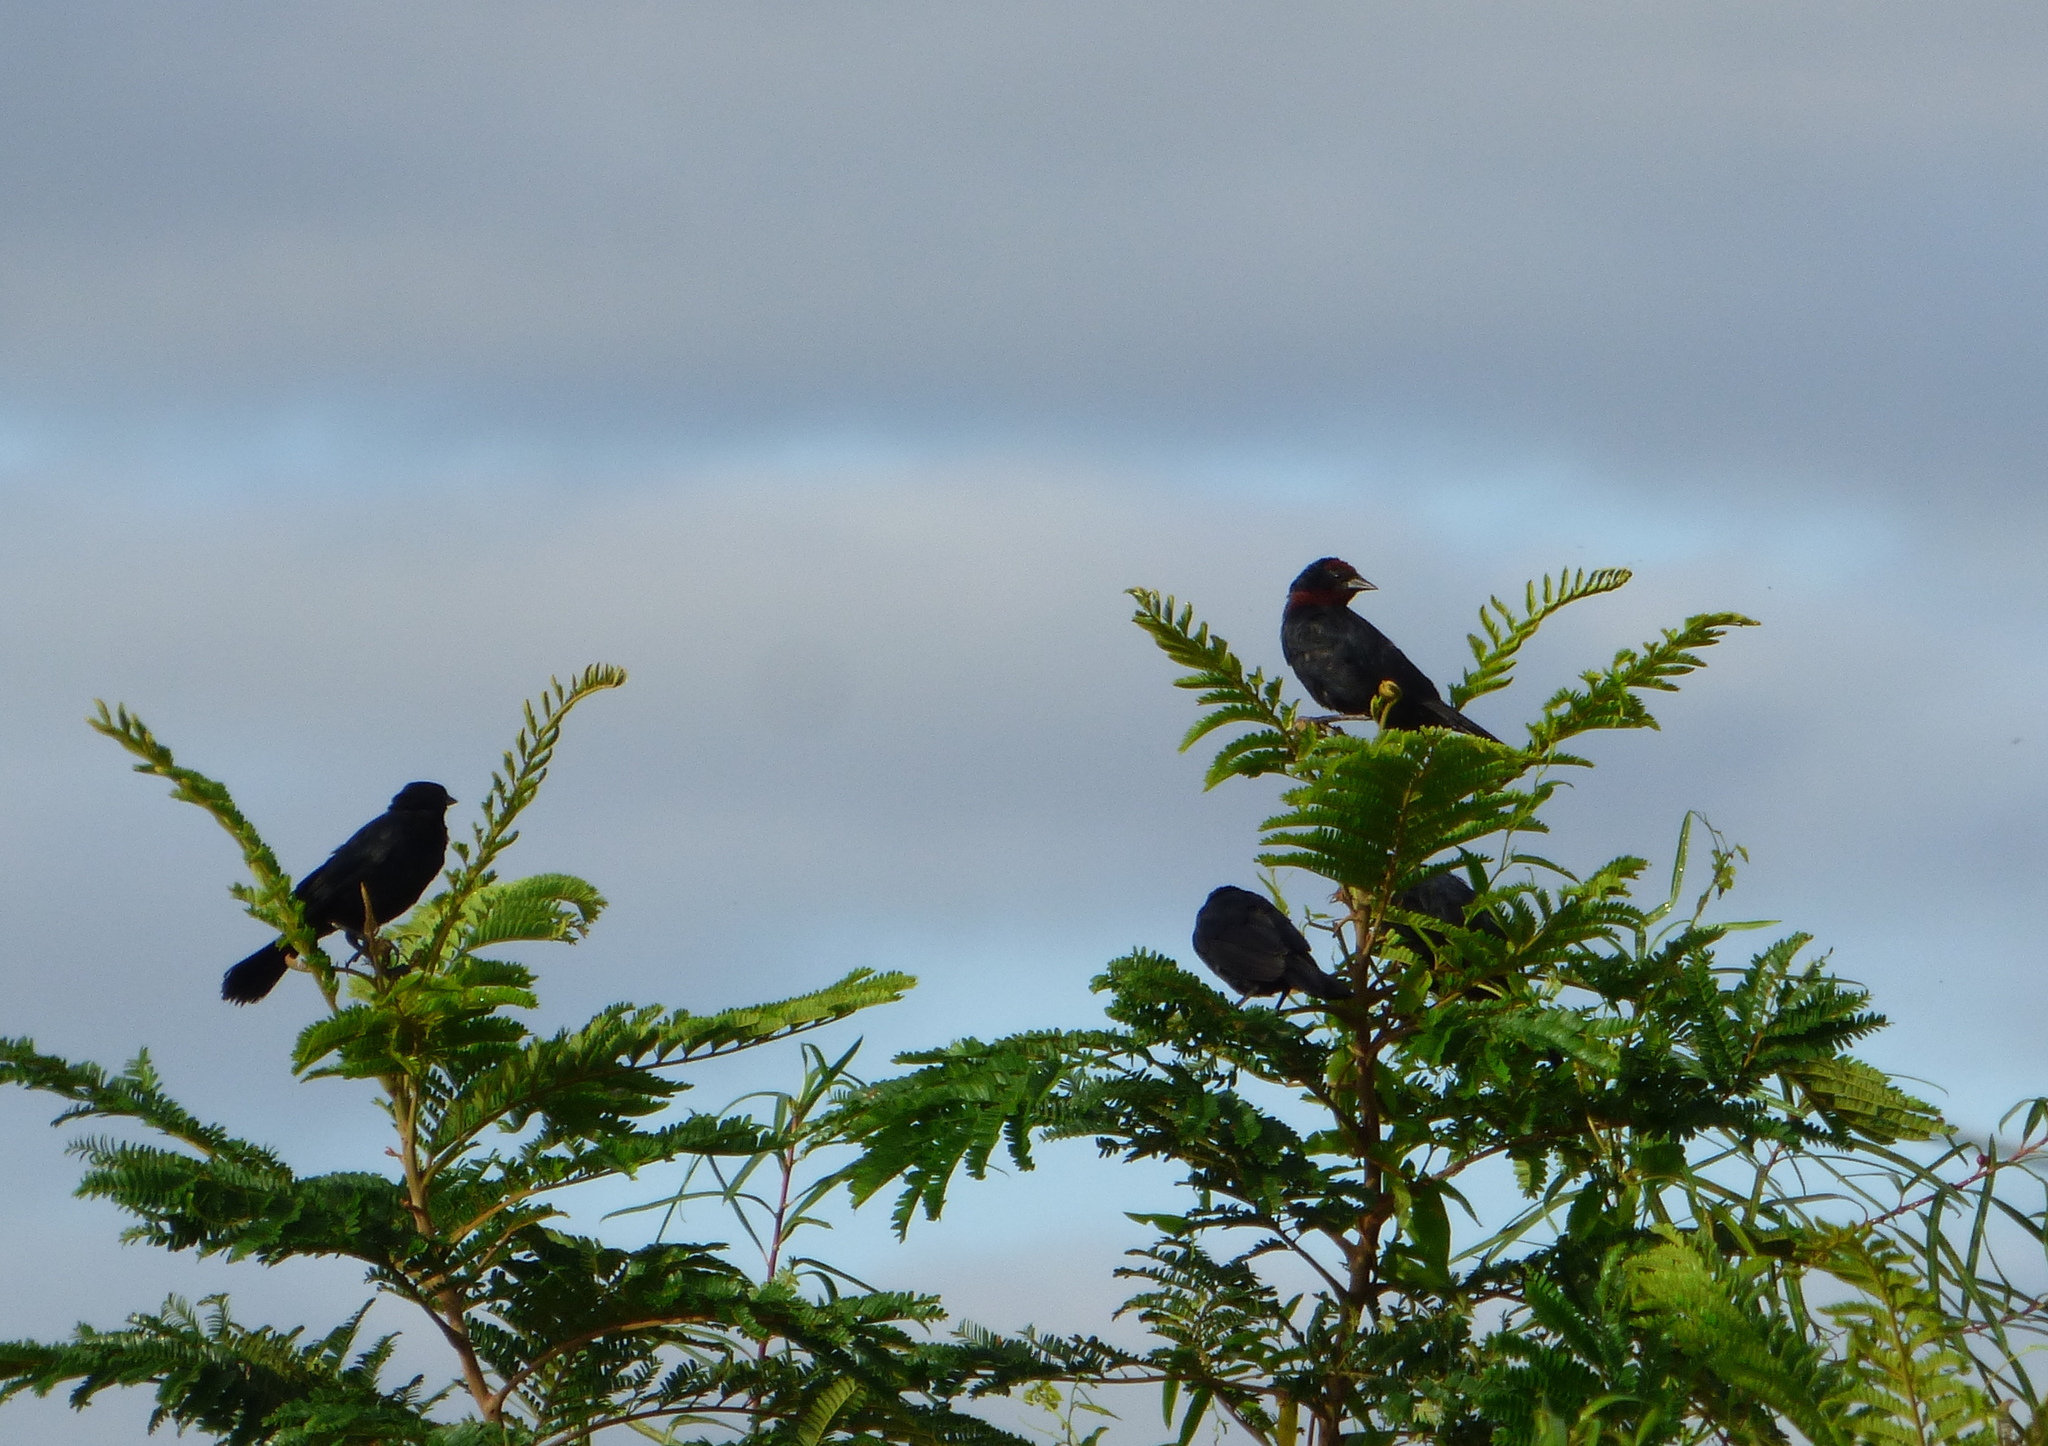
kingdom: Animalia
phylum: Chordata
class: Aves
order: Passeriformes
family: Icteridae
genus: Chrysomus
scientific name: Chrysomus ruficapillus
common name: Chestnut-capped blackbird
